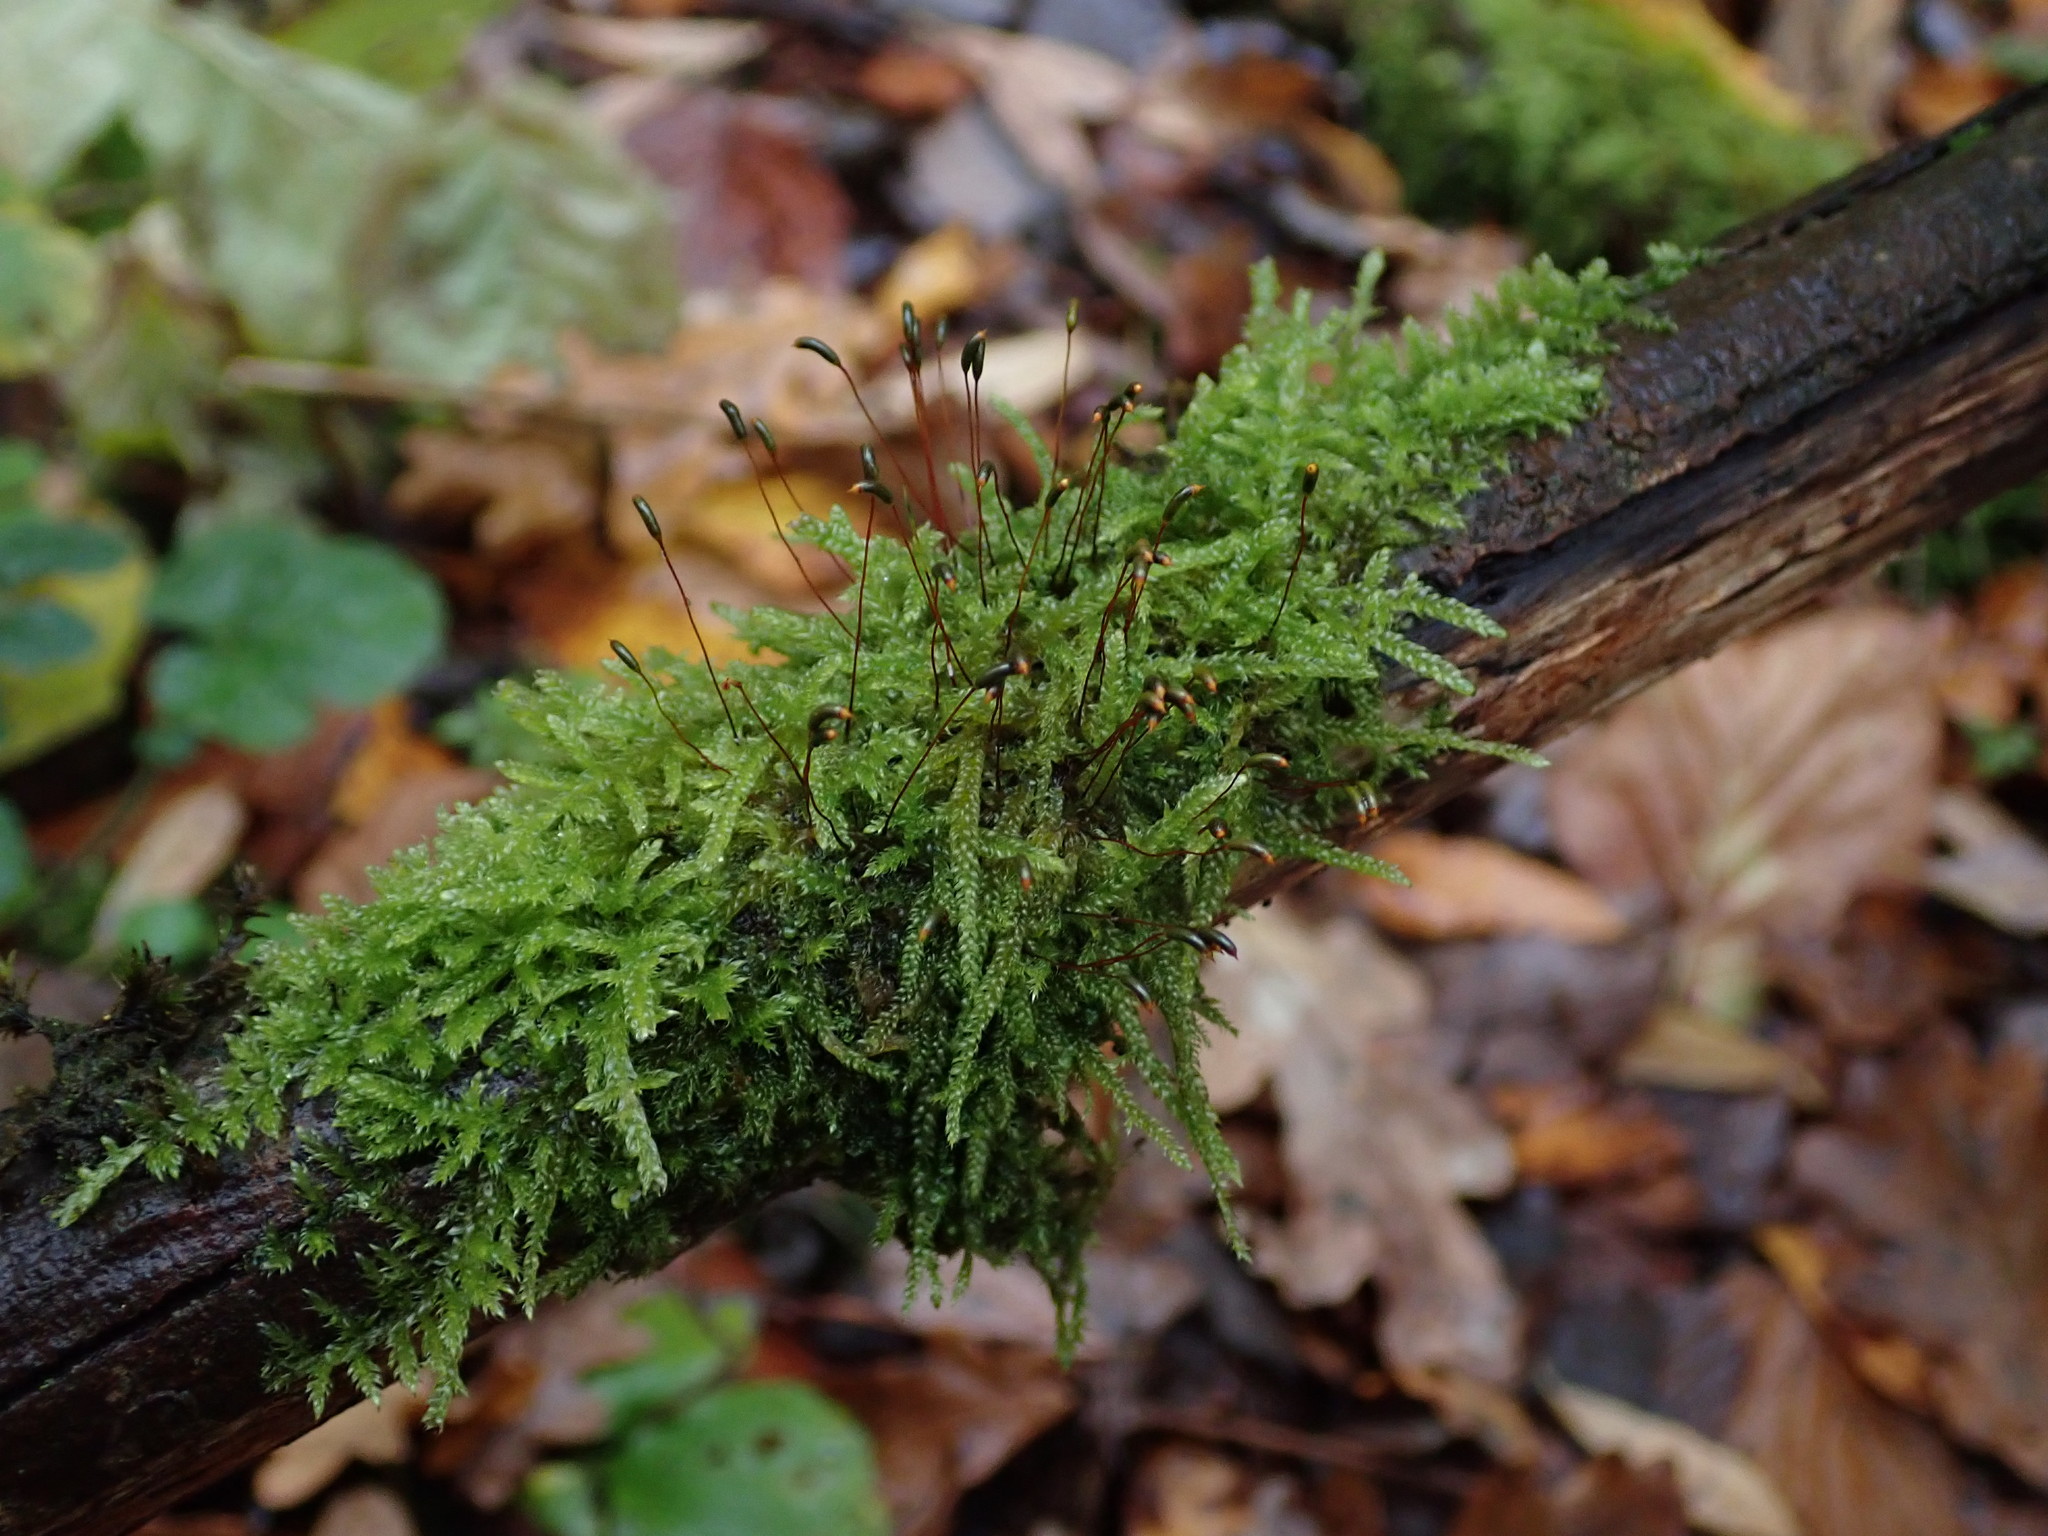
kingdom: Plantae
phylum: Bryophyta
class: Bryopsida
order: Hypnales
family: Hypnaceae
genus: Hypnum
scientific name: Hypnum cupressiforme
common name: Cypress-leaved plait-moss
